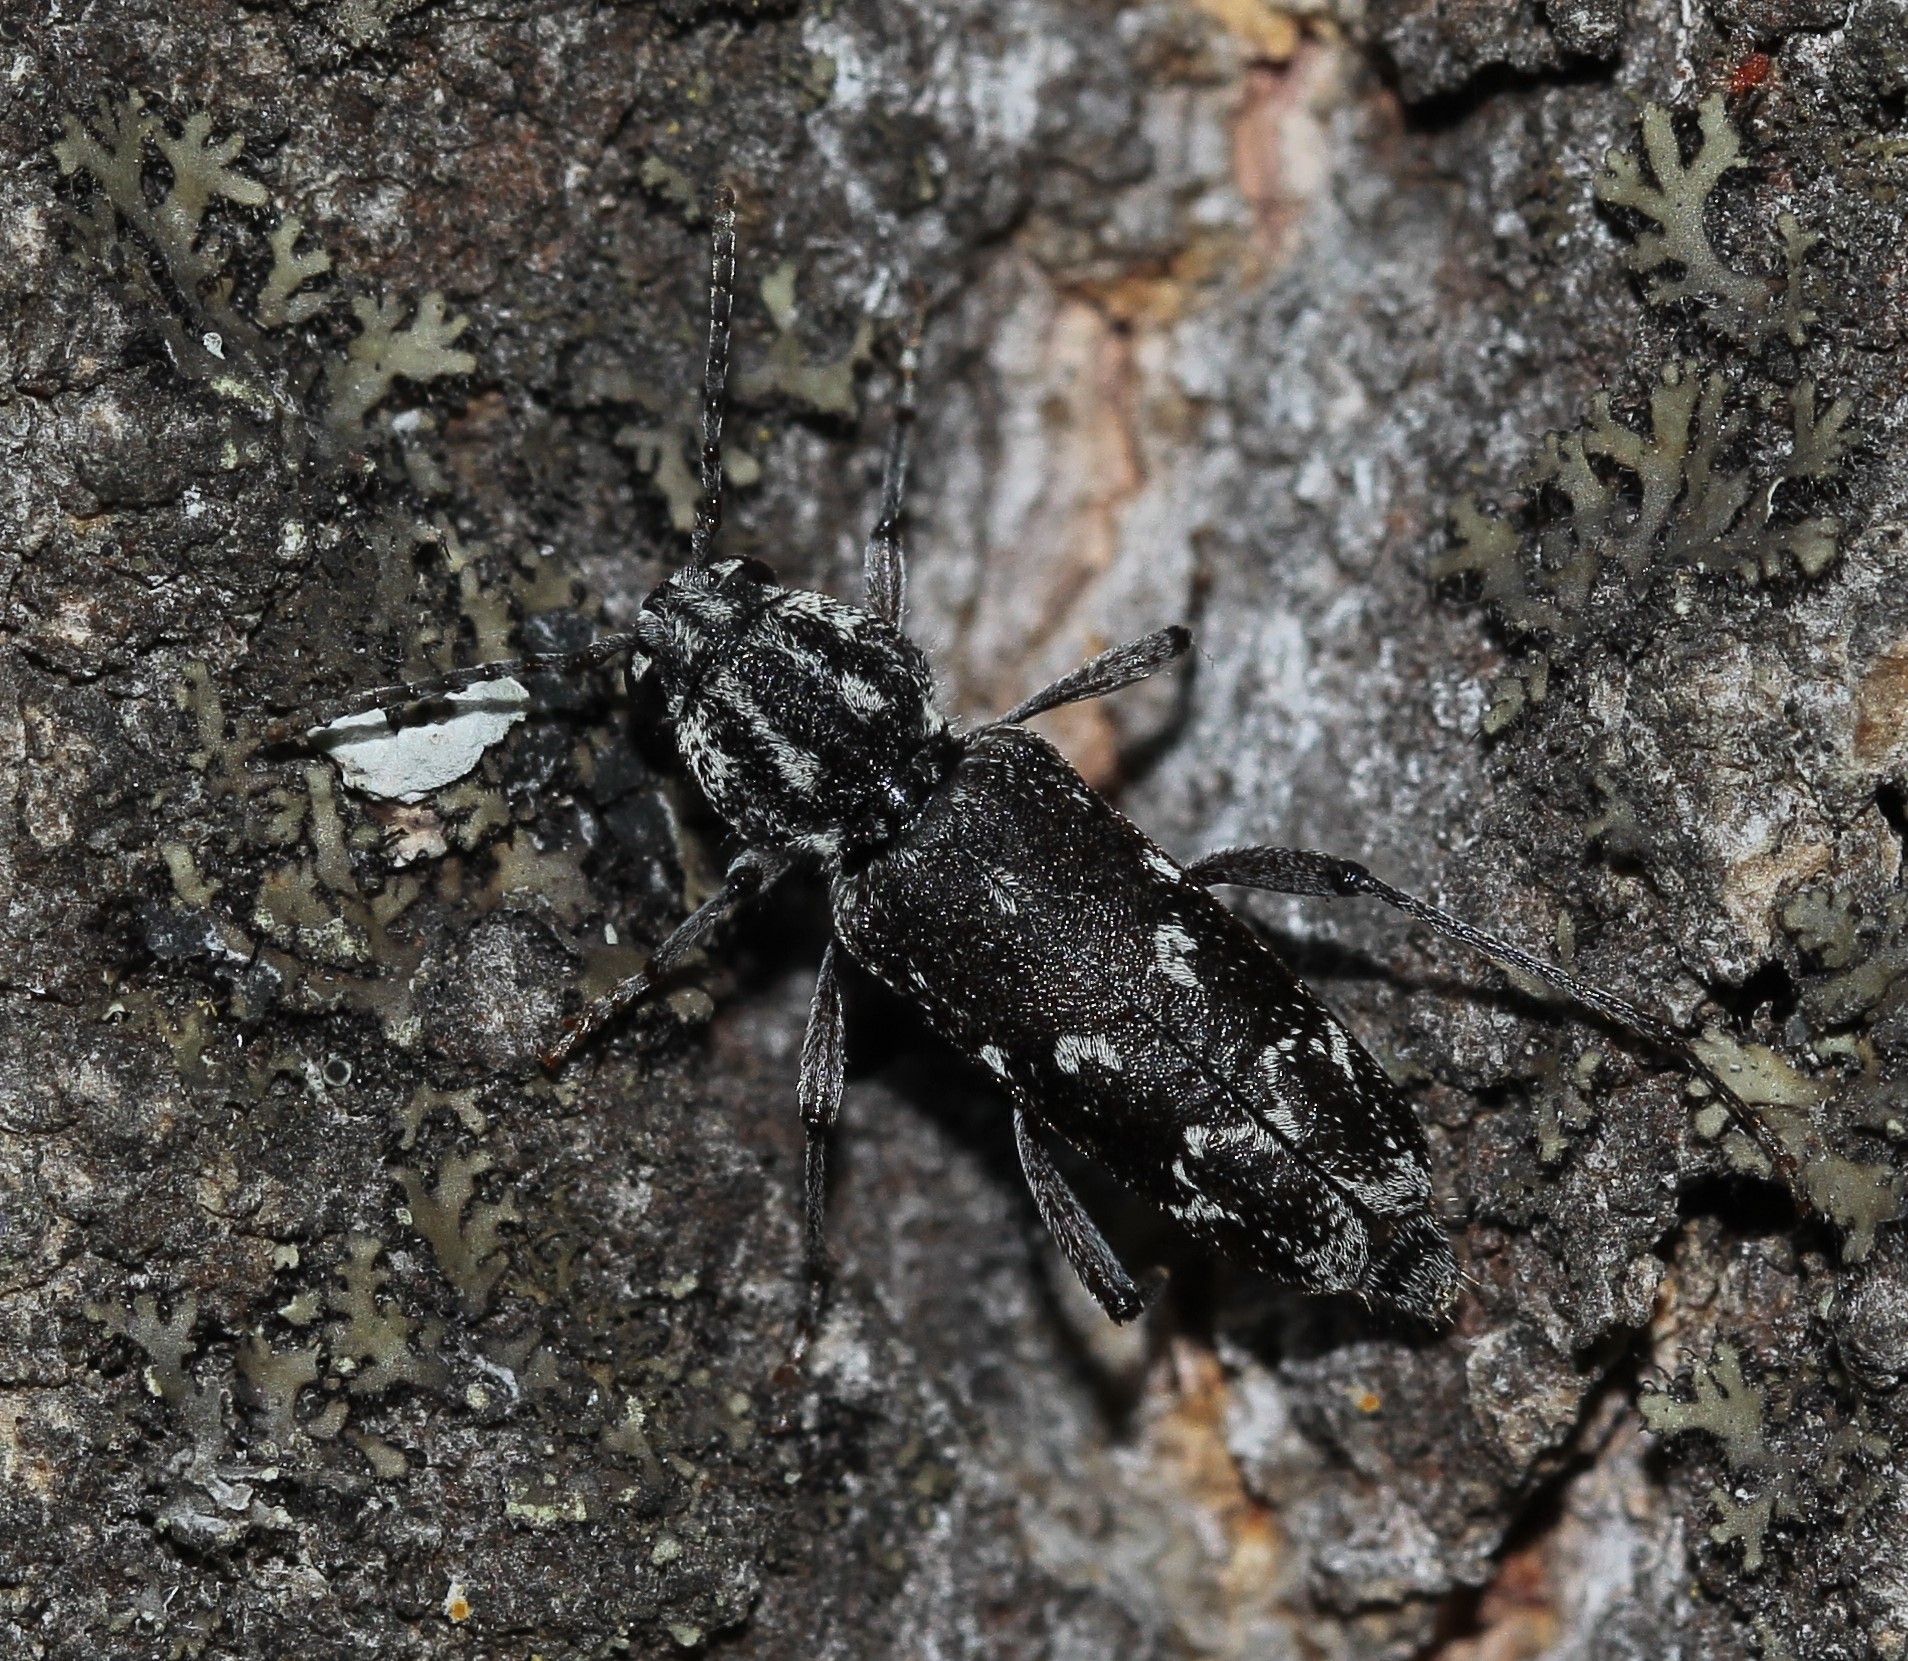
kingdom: Animalia
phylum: Arthropoda
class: Insecta
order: Coleoptera
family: Cerambycidae
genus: Xylotrechus
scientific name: Xylotrechus rusticus
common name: Grey tiger long-horned beetle
